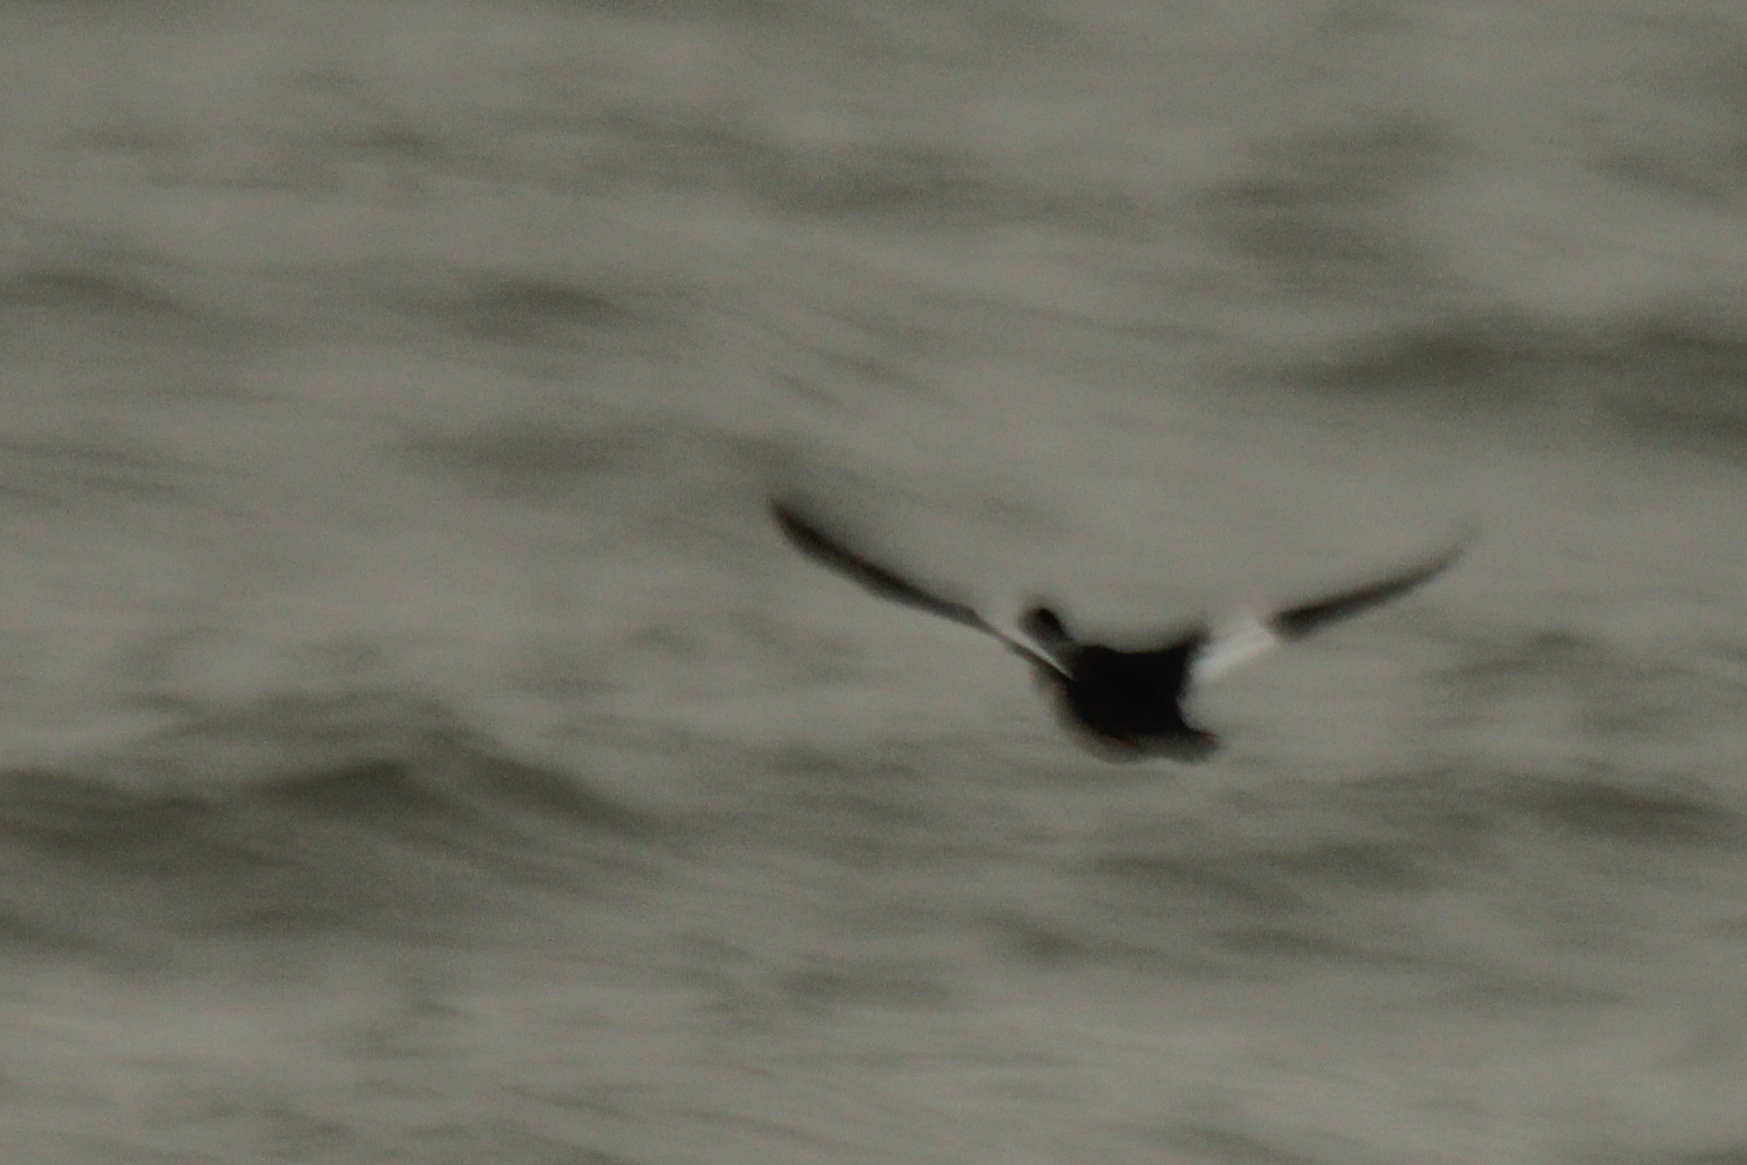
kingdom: Animalia
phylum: Chordata
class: Aves
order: Anseriformes
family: Anatidae
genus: Bucephala
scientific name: Bucephala clangula
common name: Common goldeneye
